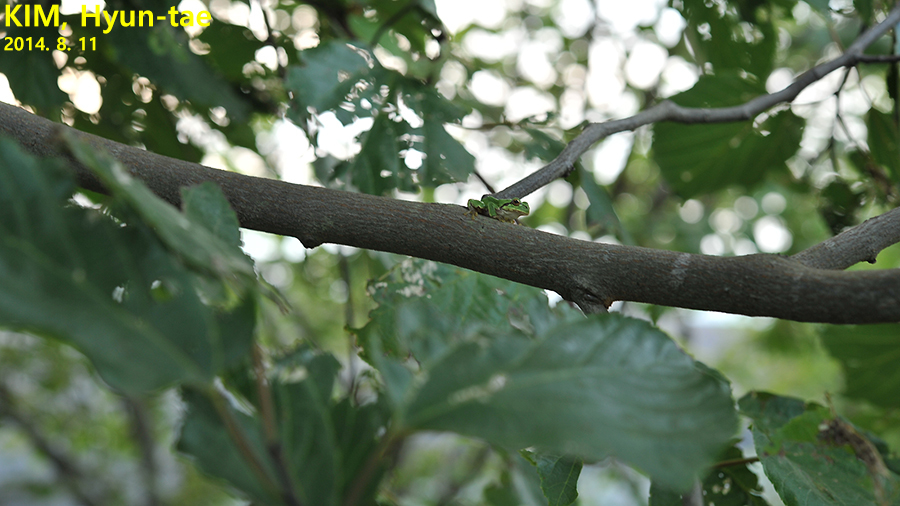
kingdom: Animalia
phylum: Chordata
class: Amphibia
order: Anura
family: Hylidae
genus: Dryophytes
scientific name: Dryophytes japonicus
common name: Japanese treefrog
